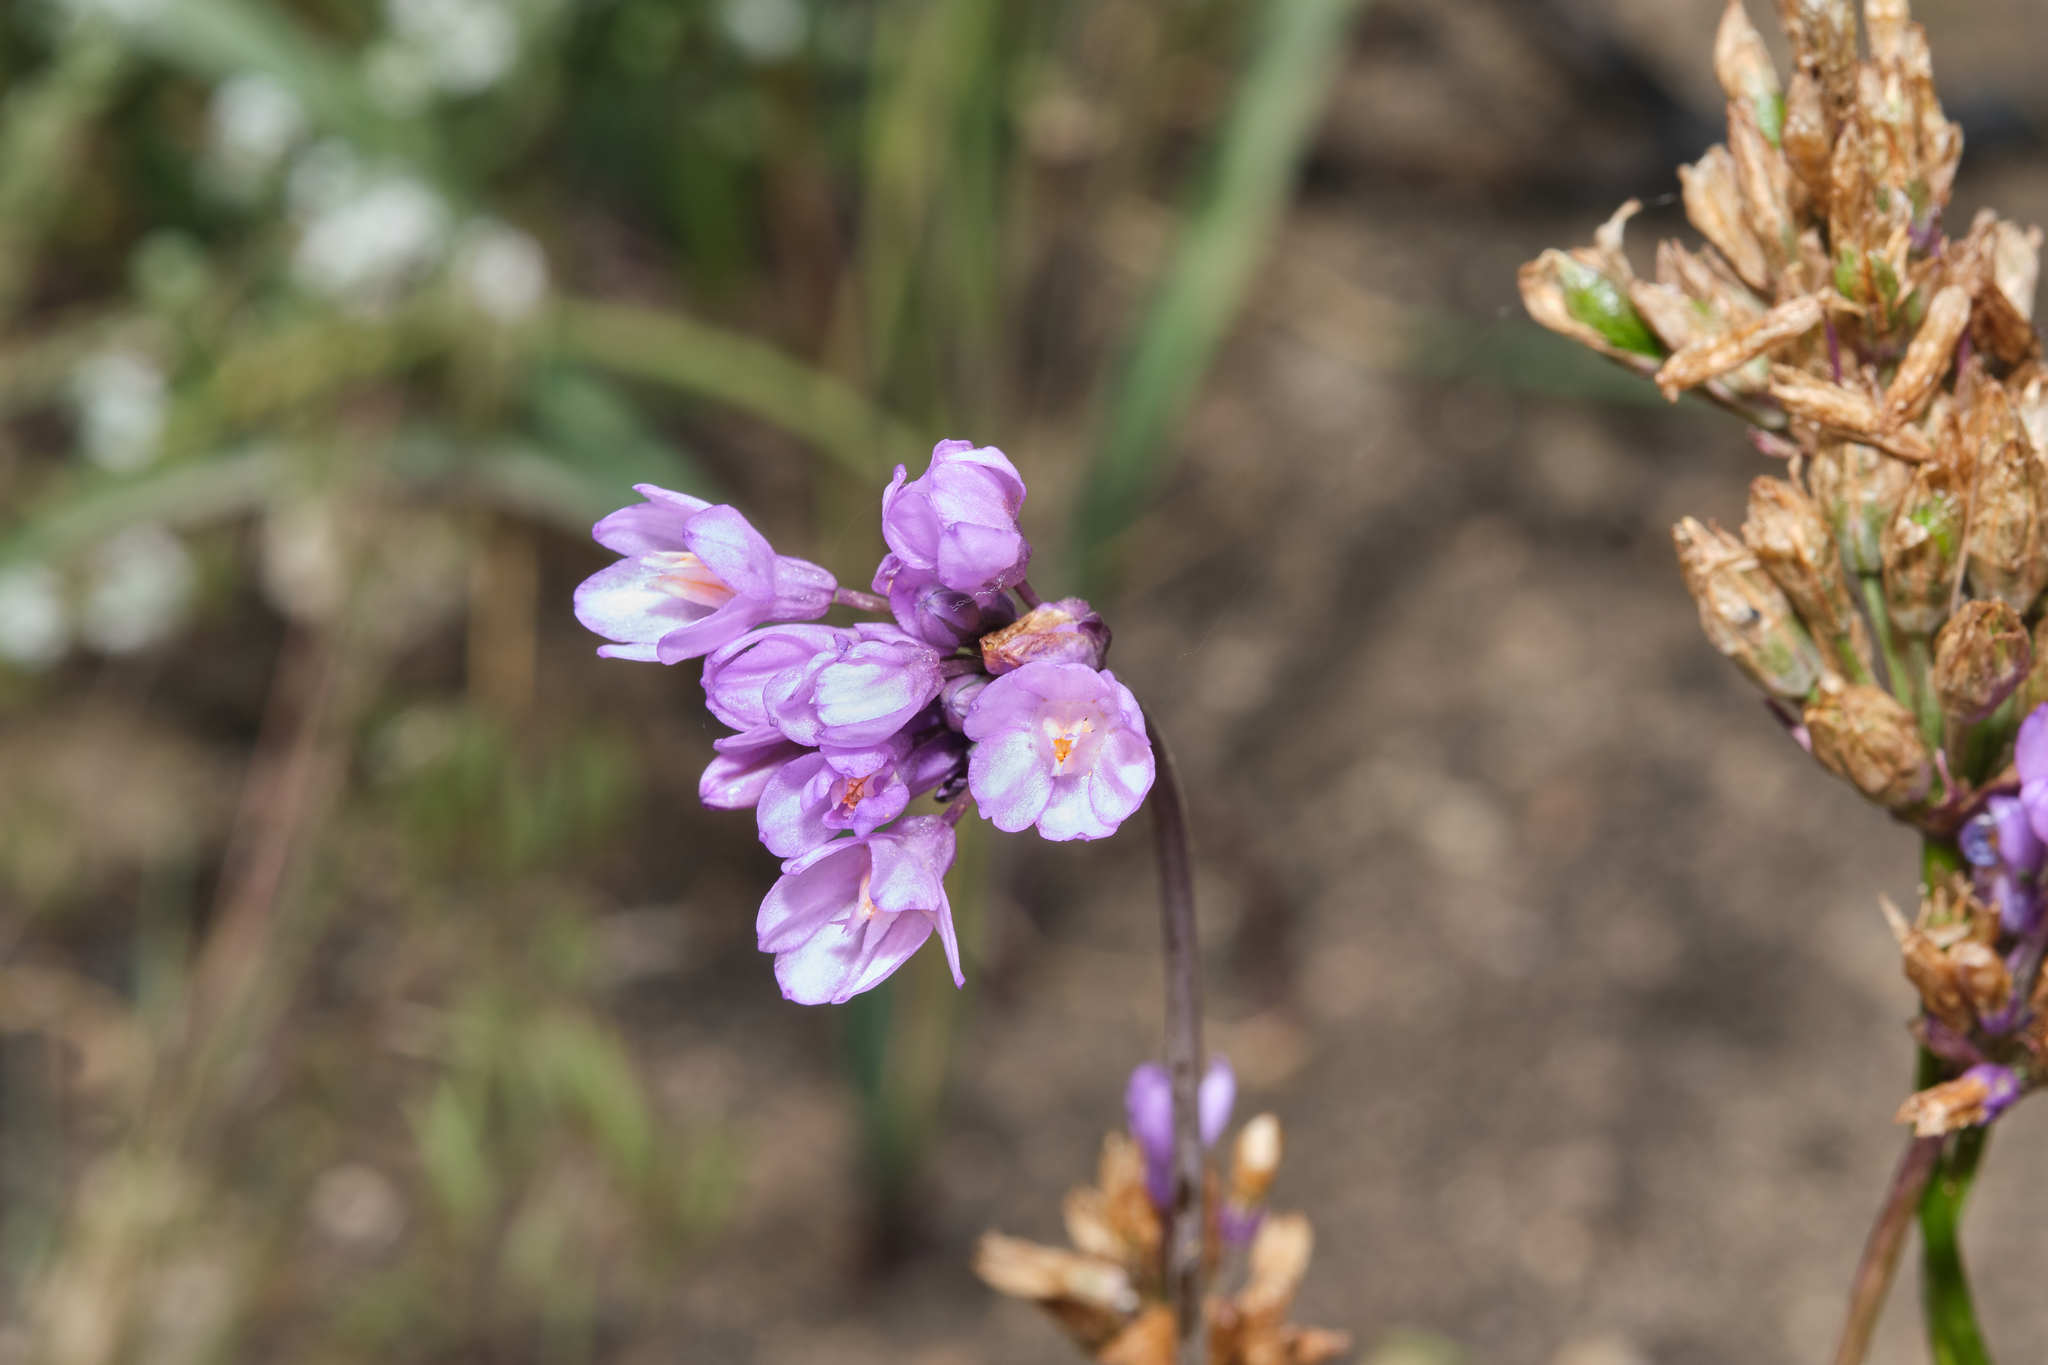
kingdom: Plantae
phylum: Tracheophyta
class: Liliopsida
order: Asparagales
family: Asparagaceae
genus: Dipterostemon
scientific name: Dipterostemon capitatus
